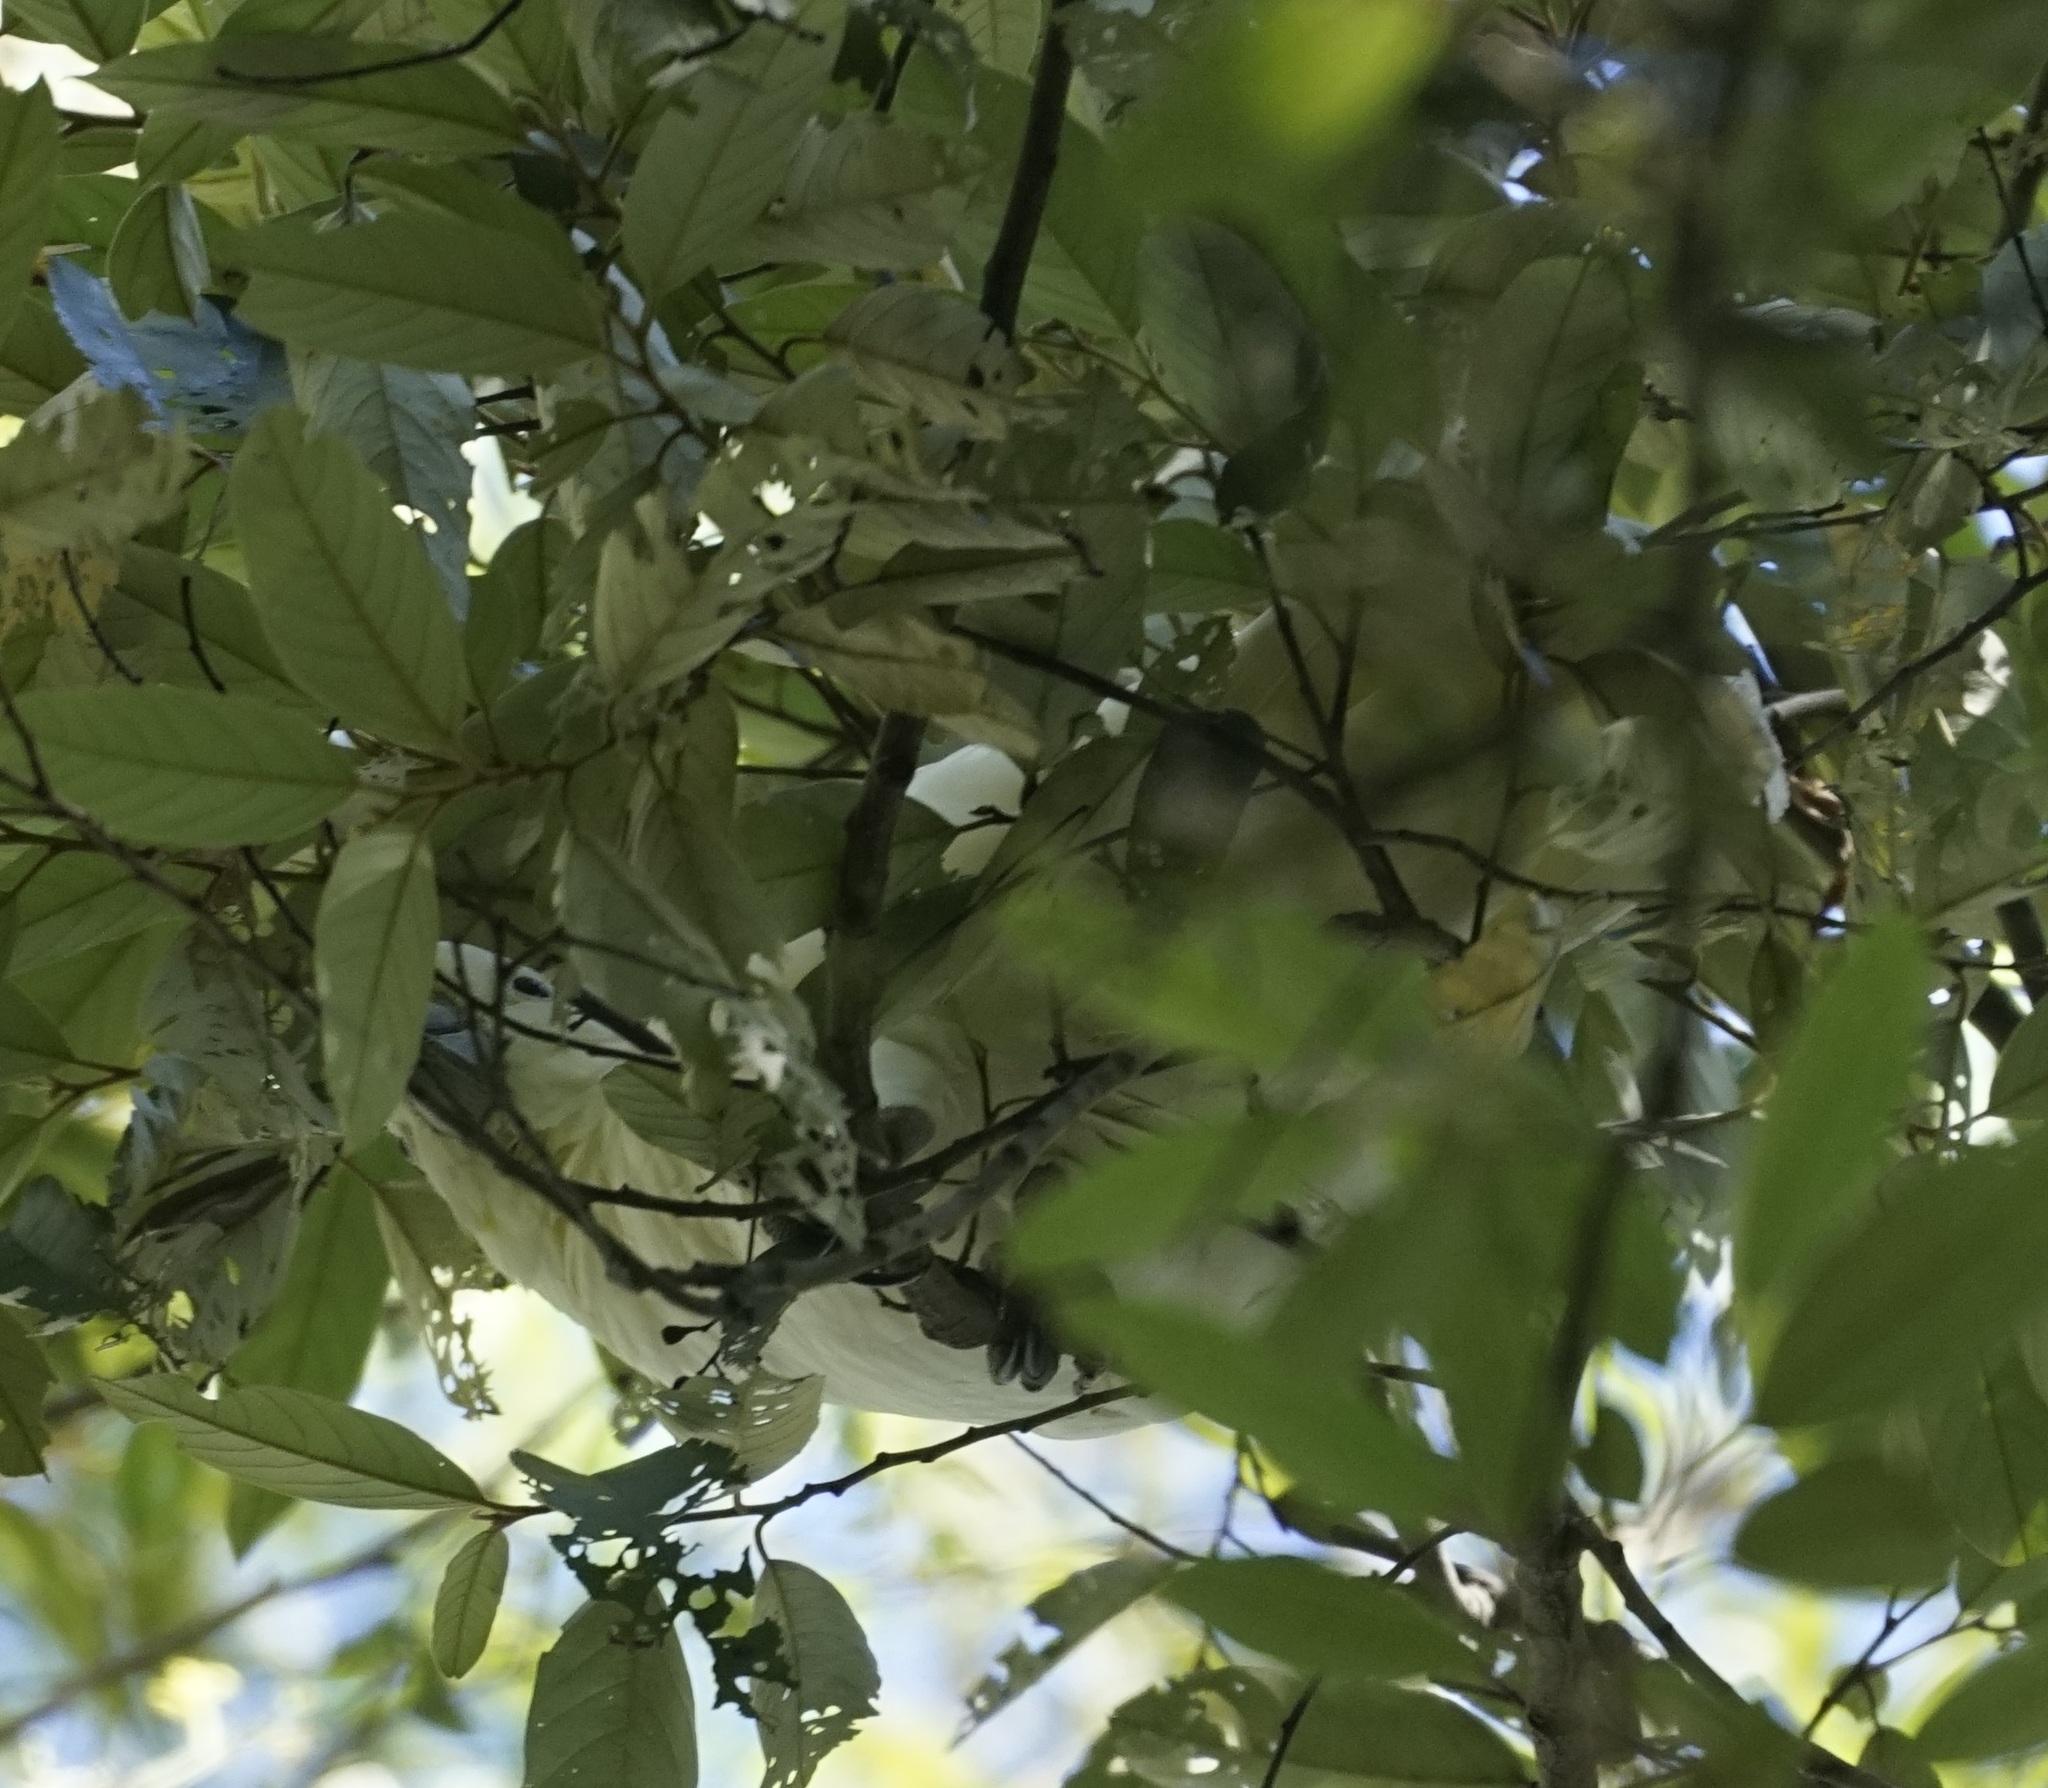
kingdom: Animalia
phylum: Chordata
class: Aves
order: Psittaciformes
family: Psittacidae
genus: Cacatua
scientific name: Cacatua galerita
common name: Sulphur-crested cockatoo
